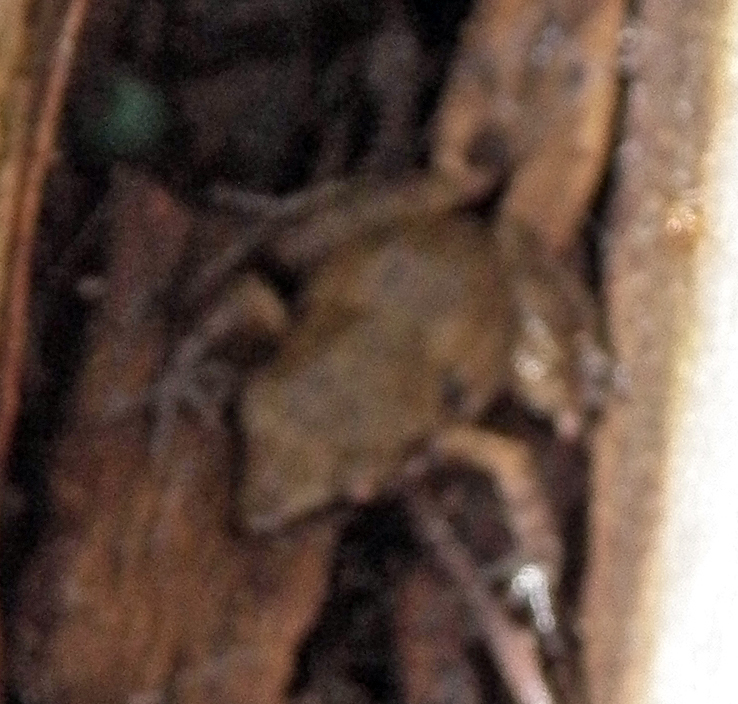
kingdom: Animalia
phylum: Chordata
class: Amphibia
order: Anura
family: Eleutherodactylidae
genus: Eleutherodactylus
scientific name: Eleutherodactylus campi
